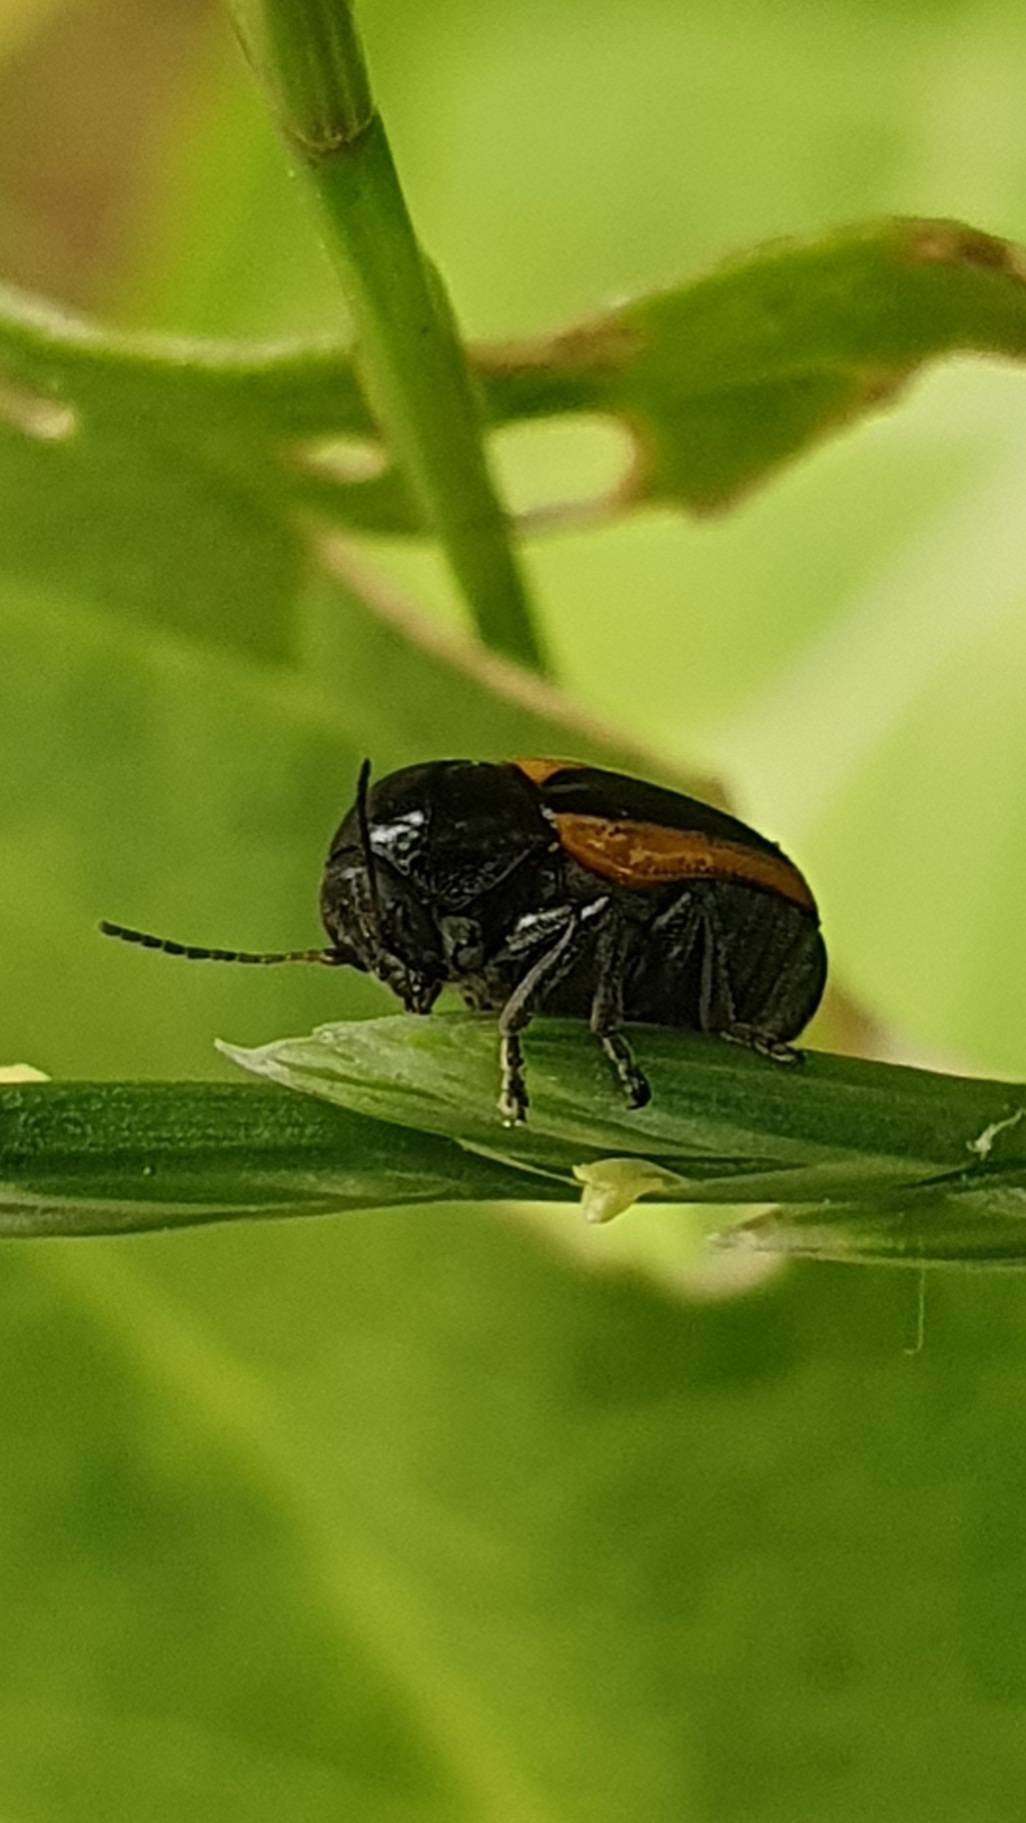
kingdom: Animalia
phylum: Arthropoda
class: Insecta
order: Coleoptera
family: Chrysomelidae
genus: Acalymma
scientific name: Acalymma vittatum
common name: Striped cucumber beetle
